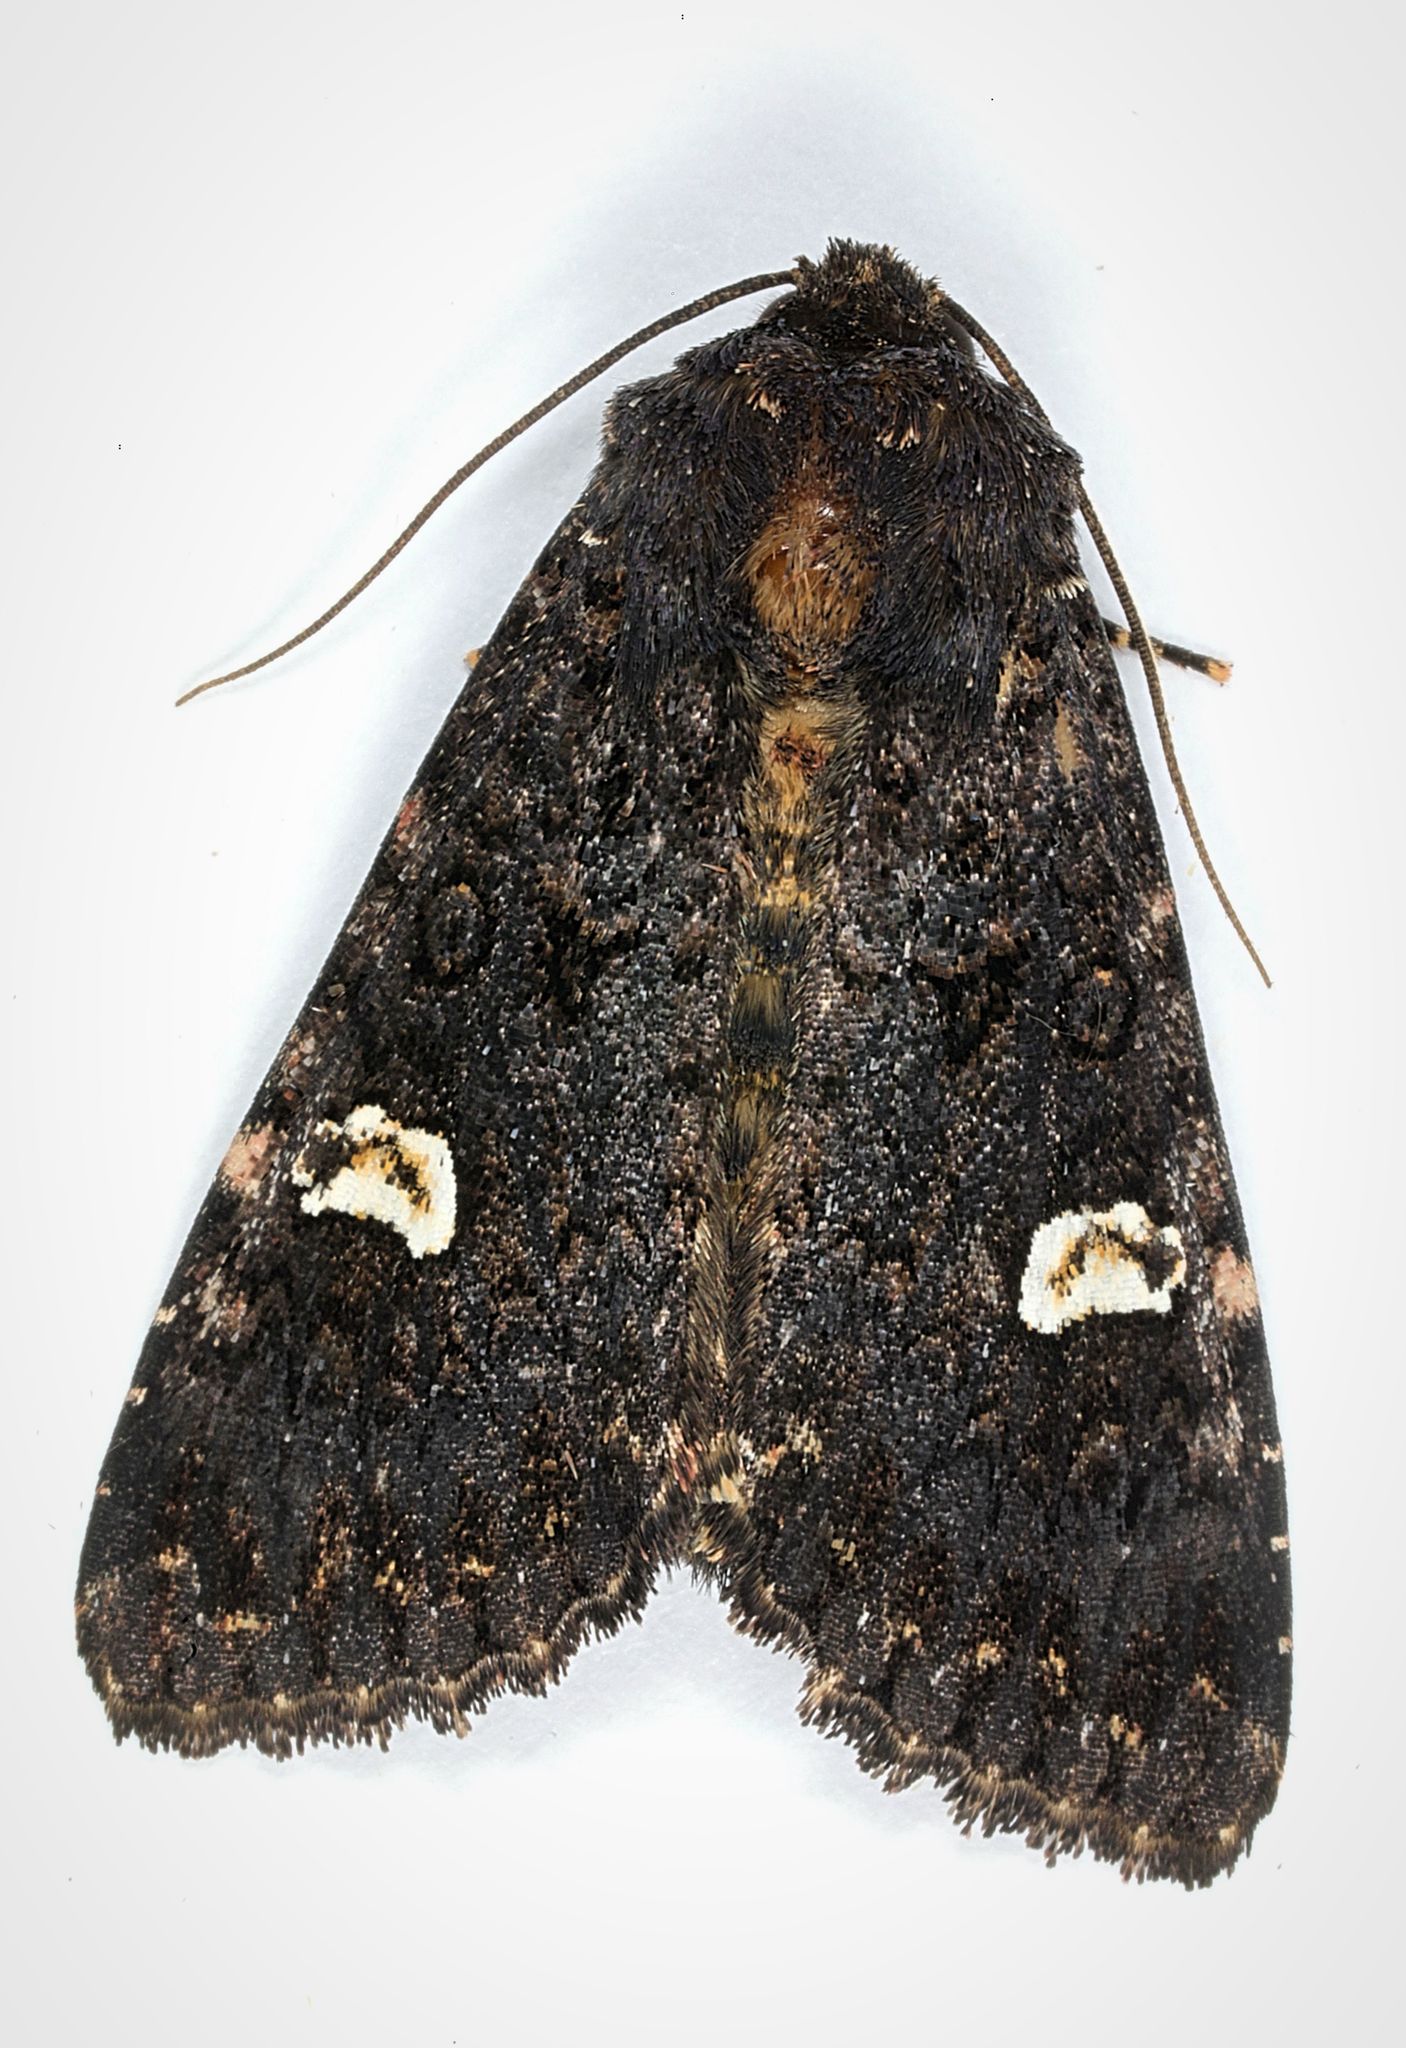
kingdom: Animalia
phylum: Arthropoda
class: Insecta
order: Lepidoptera
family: Noctuidae
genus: Melanchra
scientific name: Melanchra persicariae
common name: Dot moth
